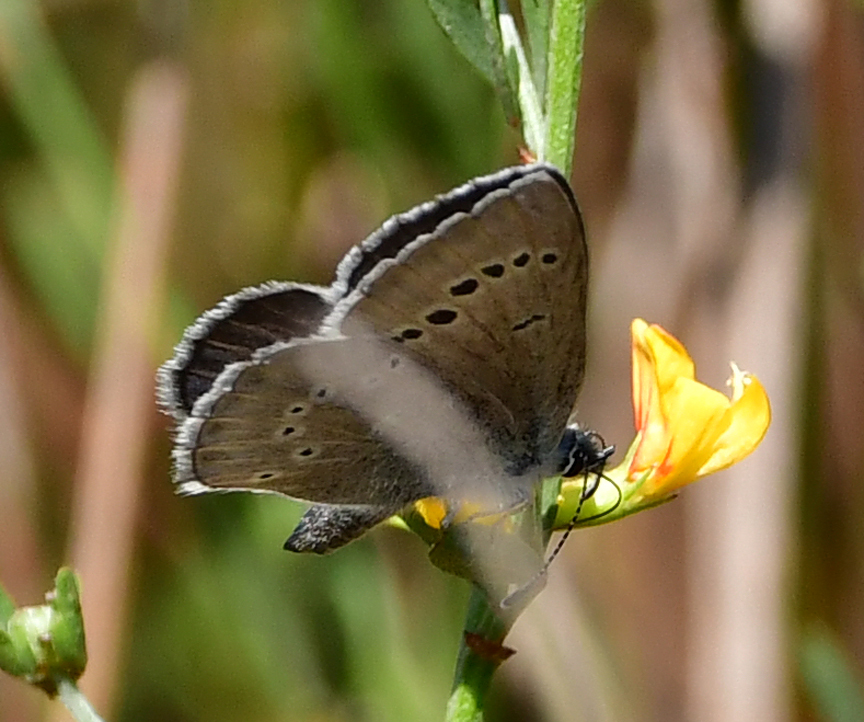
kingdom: Animalia
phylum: Arthropoda
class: Insecta
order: Lepidoptera
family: Lycaenidae
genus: Glaucopsyche
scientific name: Glaucopsyche lygdamus
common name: Silvery blue
